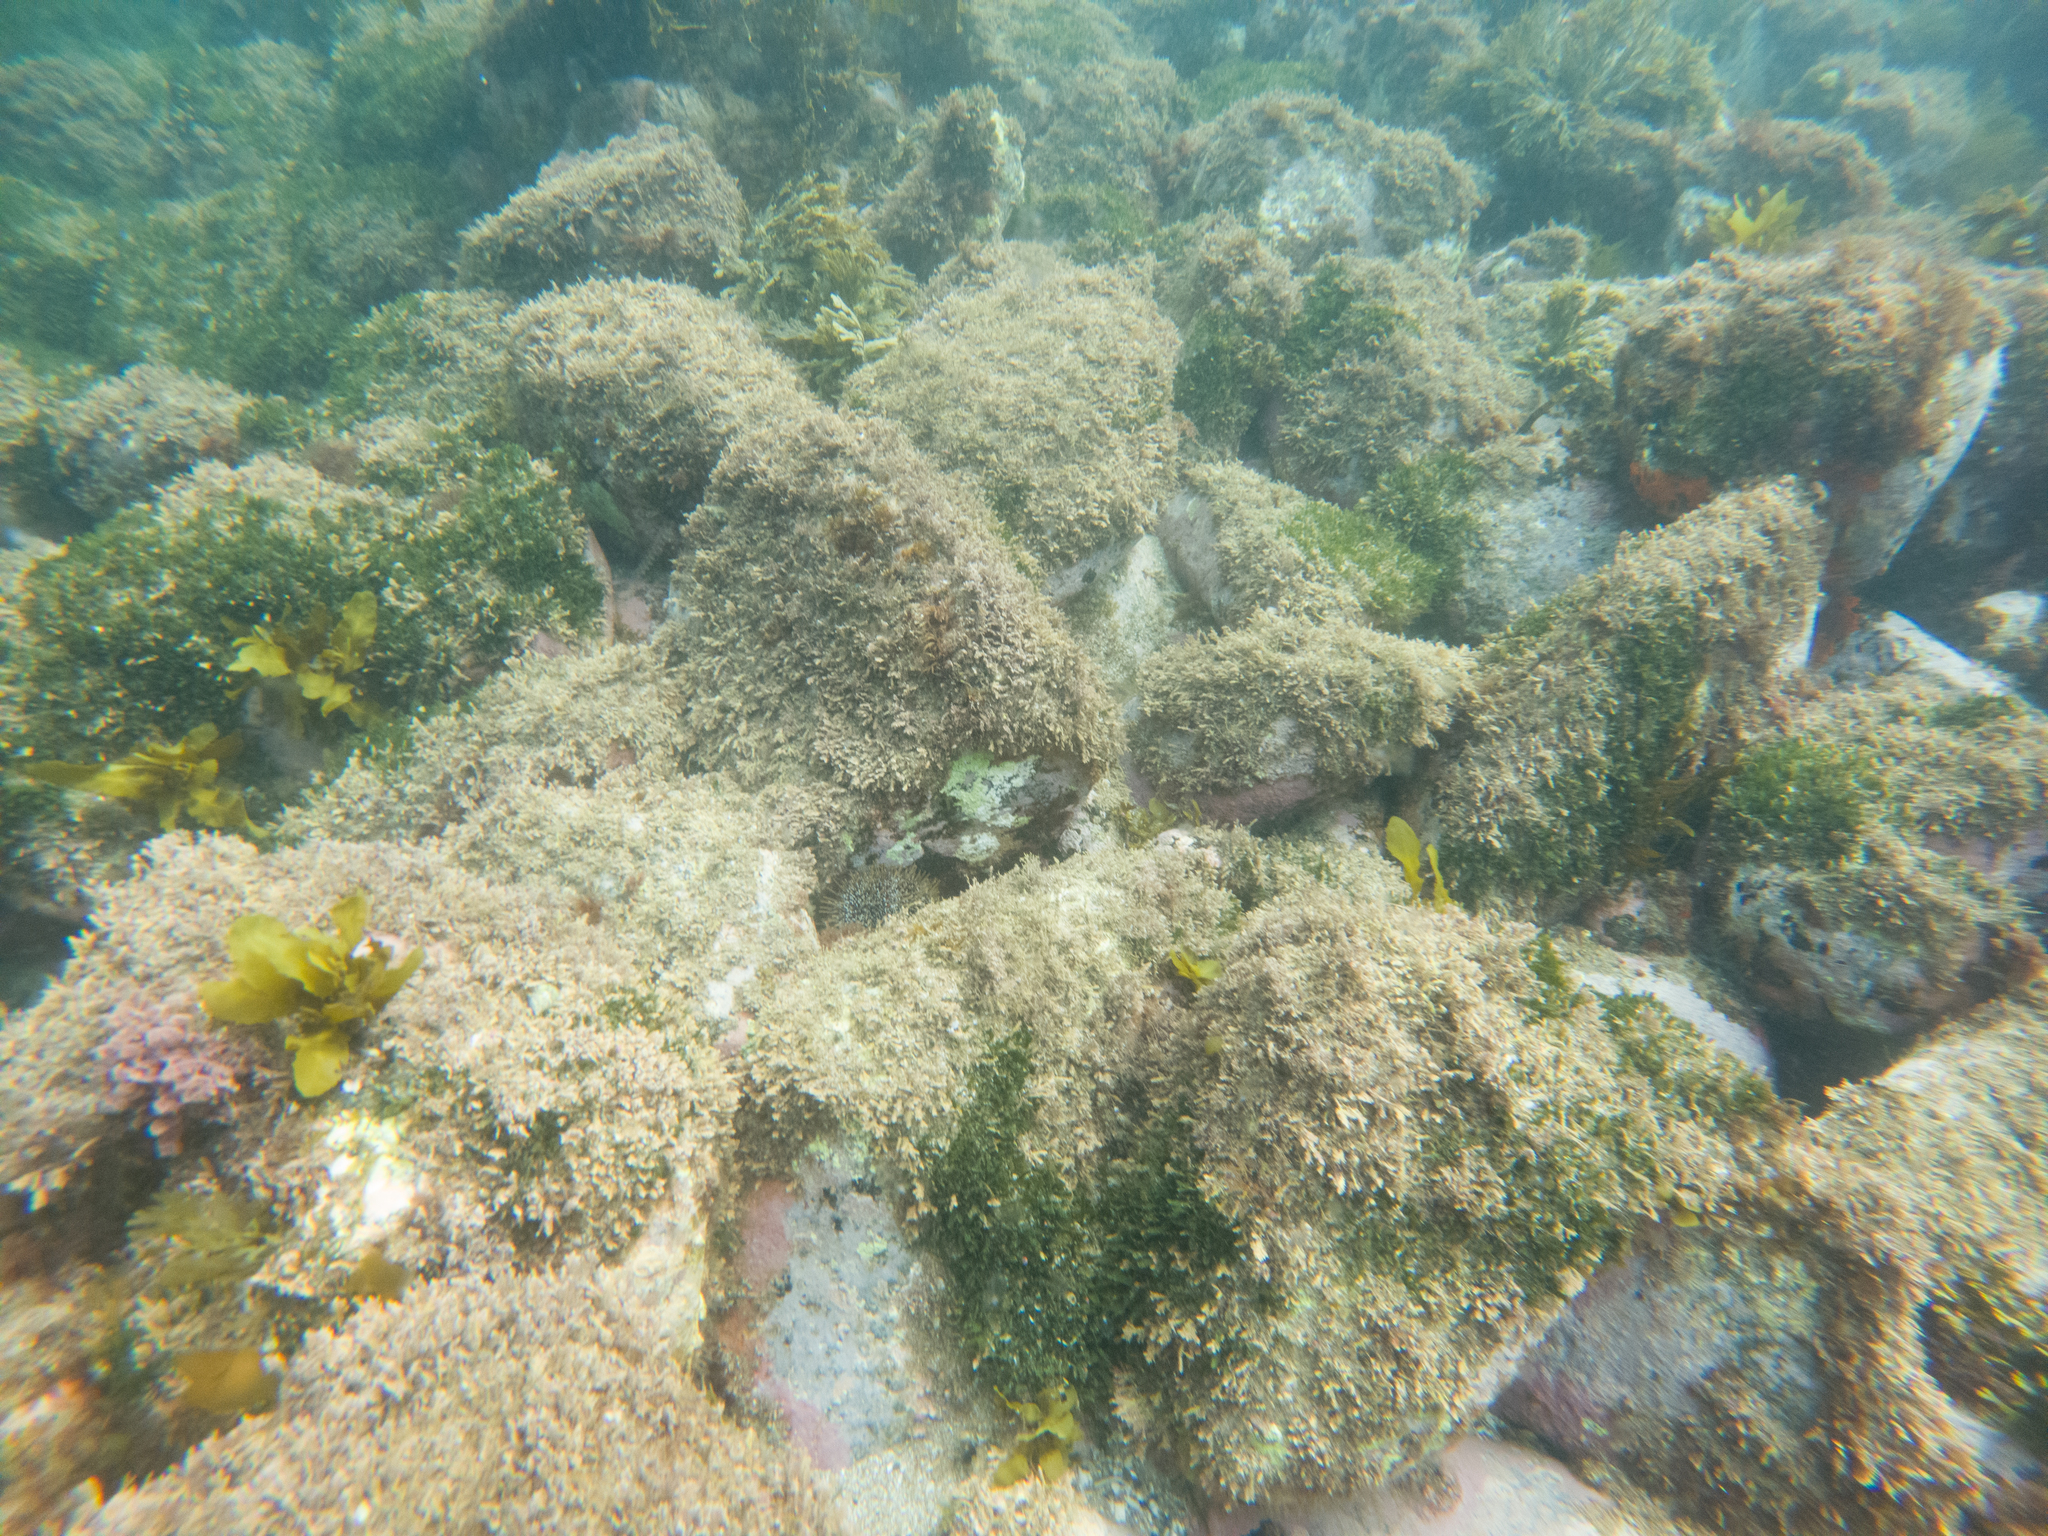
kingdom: Plantae
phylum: Chlorophyta
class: Ulvophyceae
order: Bryopsidales
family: Caulerpaceae
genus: Caulerpa
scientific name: Caulerpa brachypus
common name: Macroalgae
